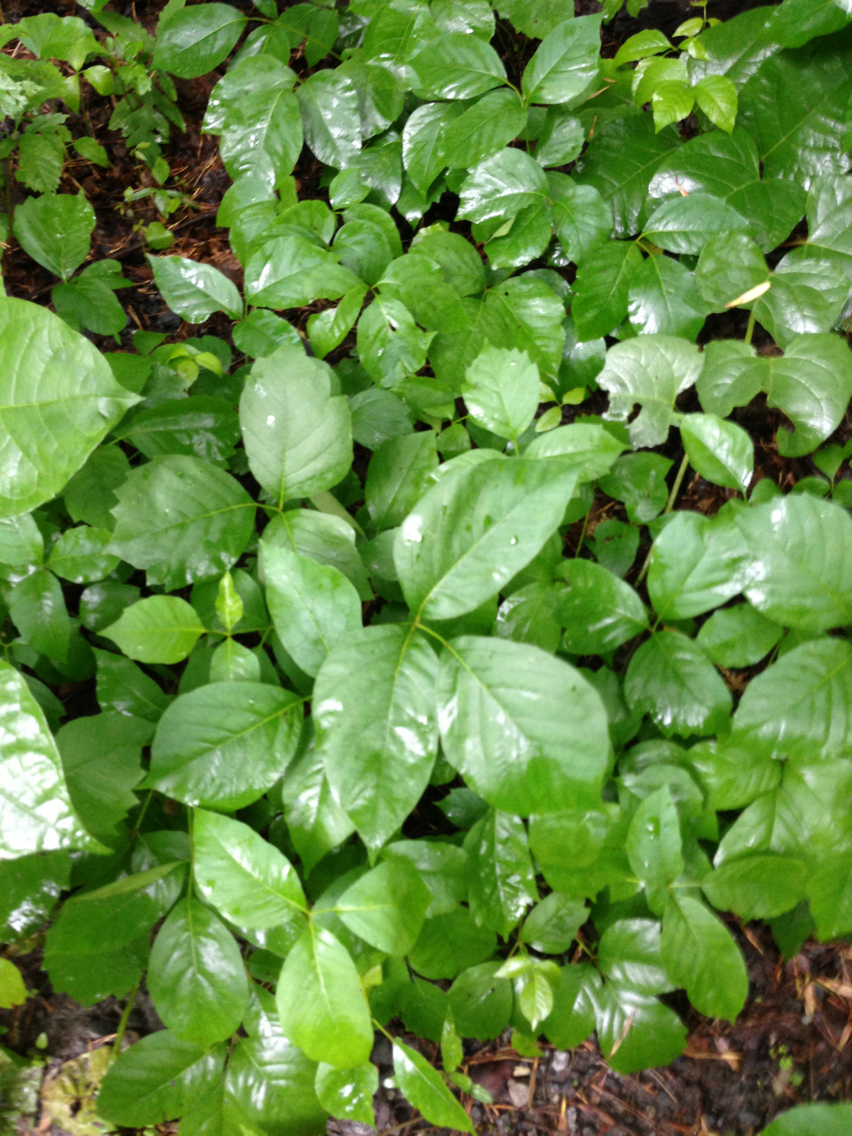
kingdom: Plantae
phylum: Tracheophyta
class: Magnoliopsida
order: Sapindales
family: Anacardiaceae
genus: Toxicodendron
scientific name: Toxicodendron radicans
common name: Poison ivy
